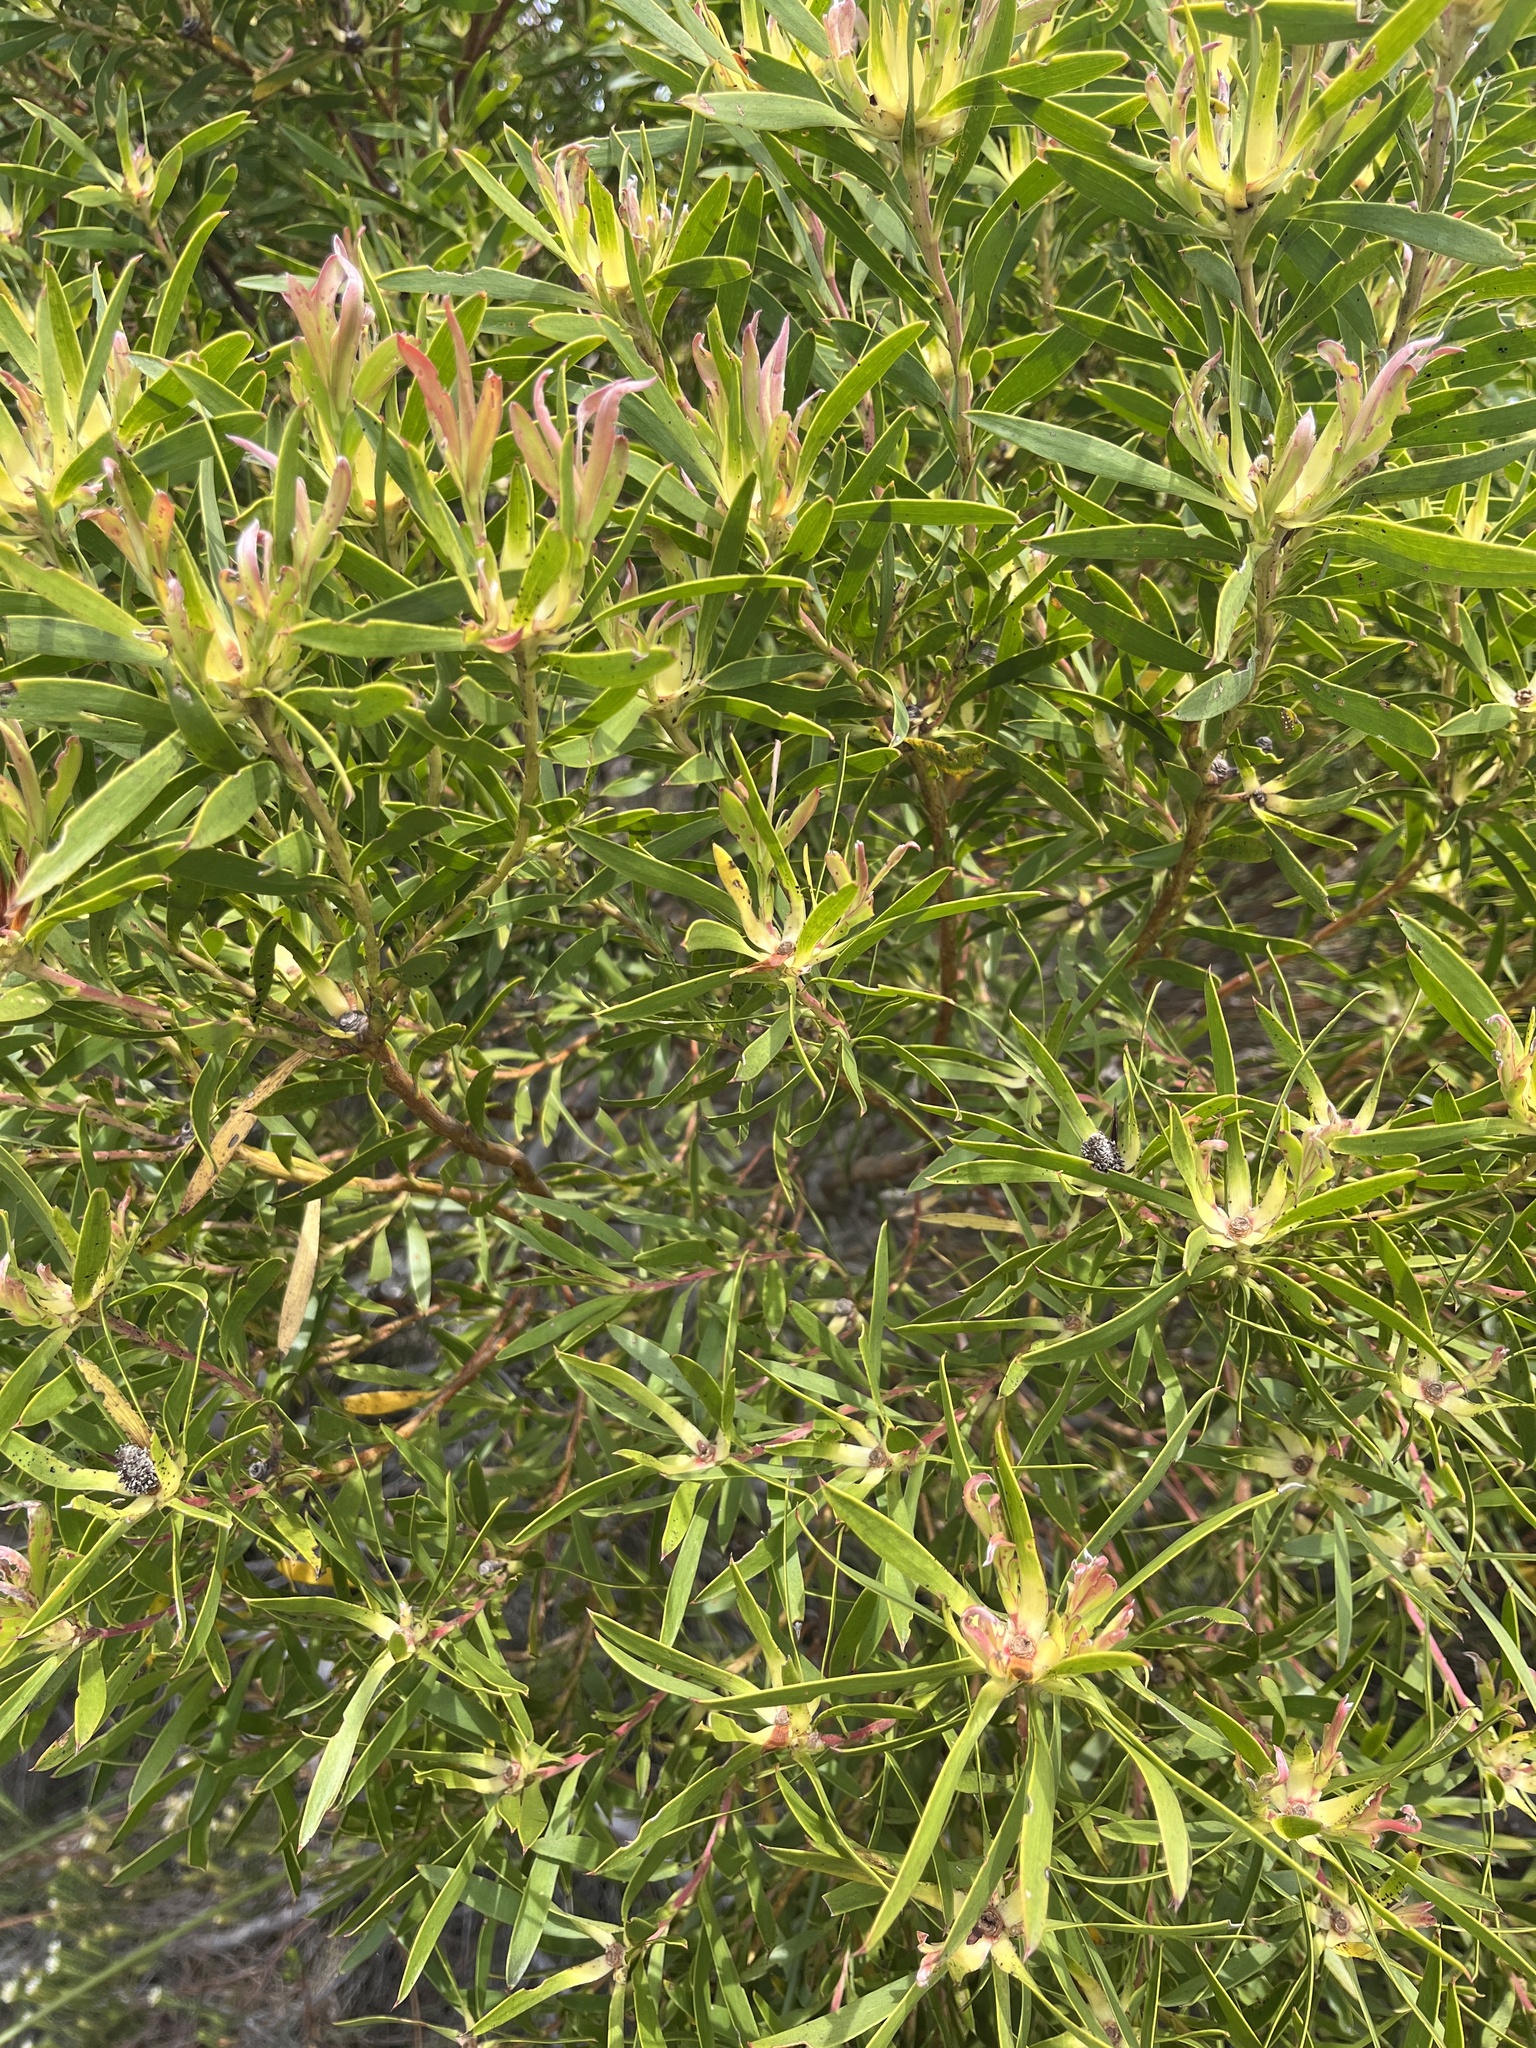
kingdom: Plantae
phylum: Tracheophyta
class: Magnoliopsida
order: Proteales
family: Proteaceae
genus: Leucadendron
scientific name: Leucadendron coniferum
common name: Dune conebush
